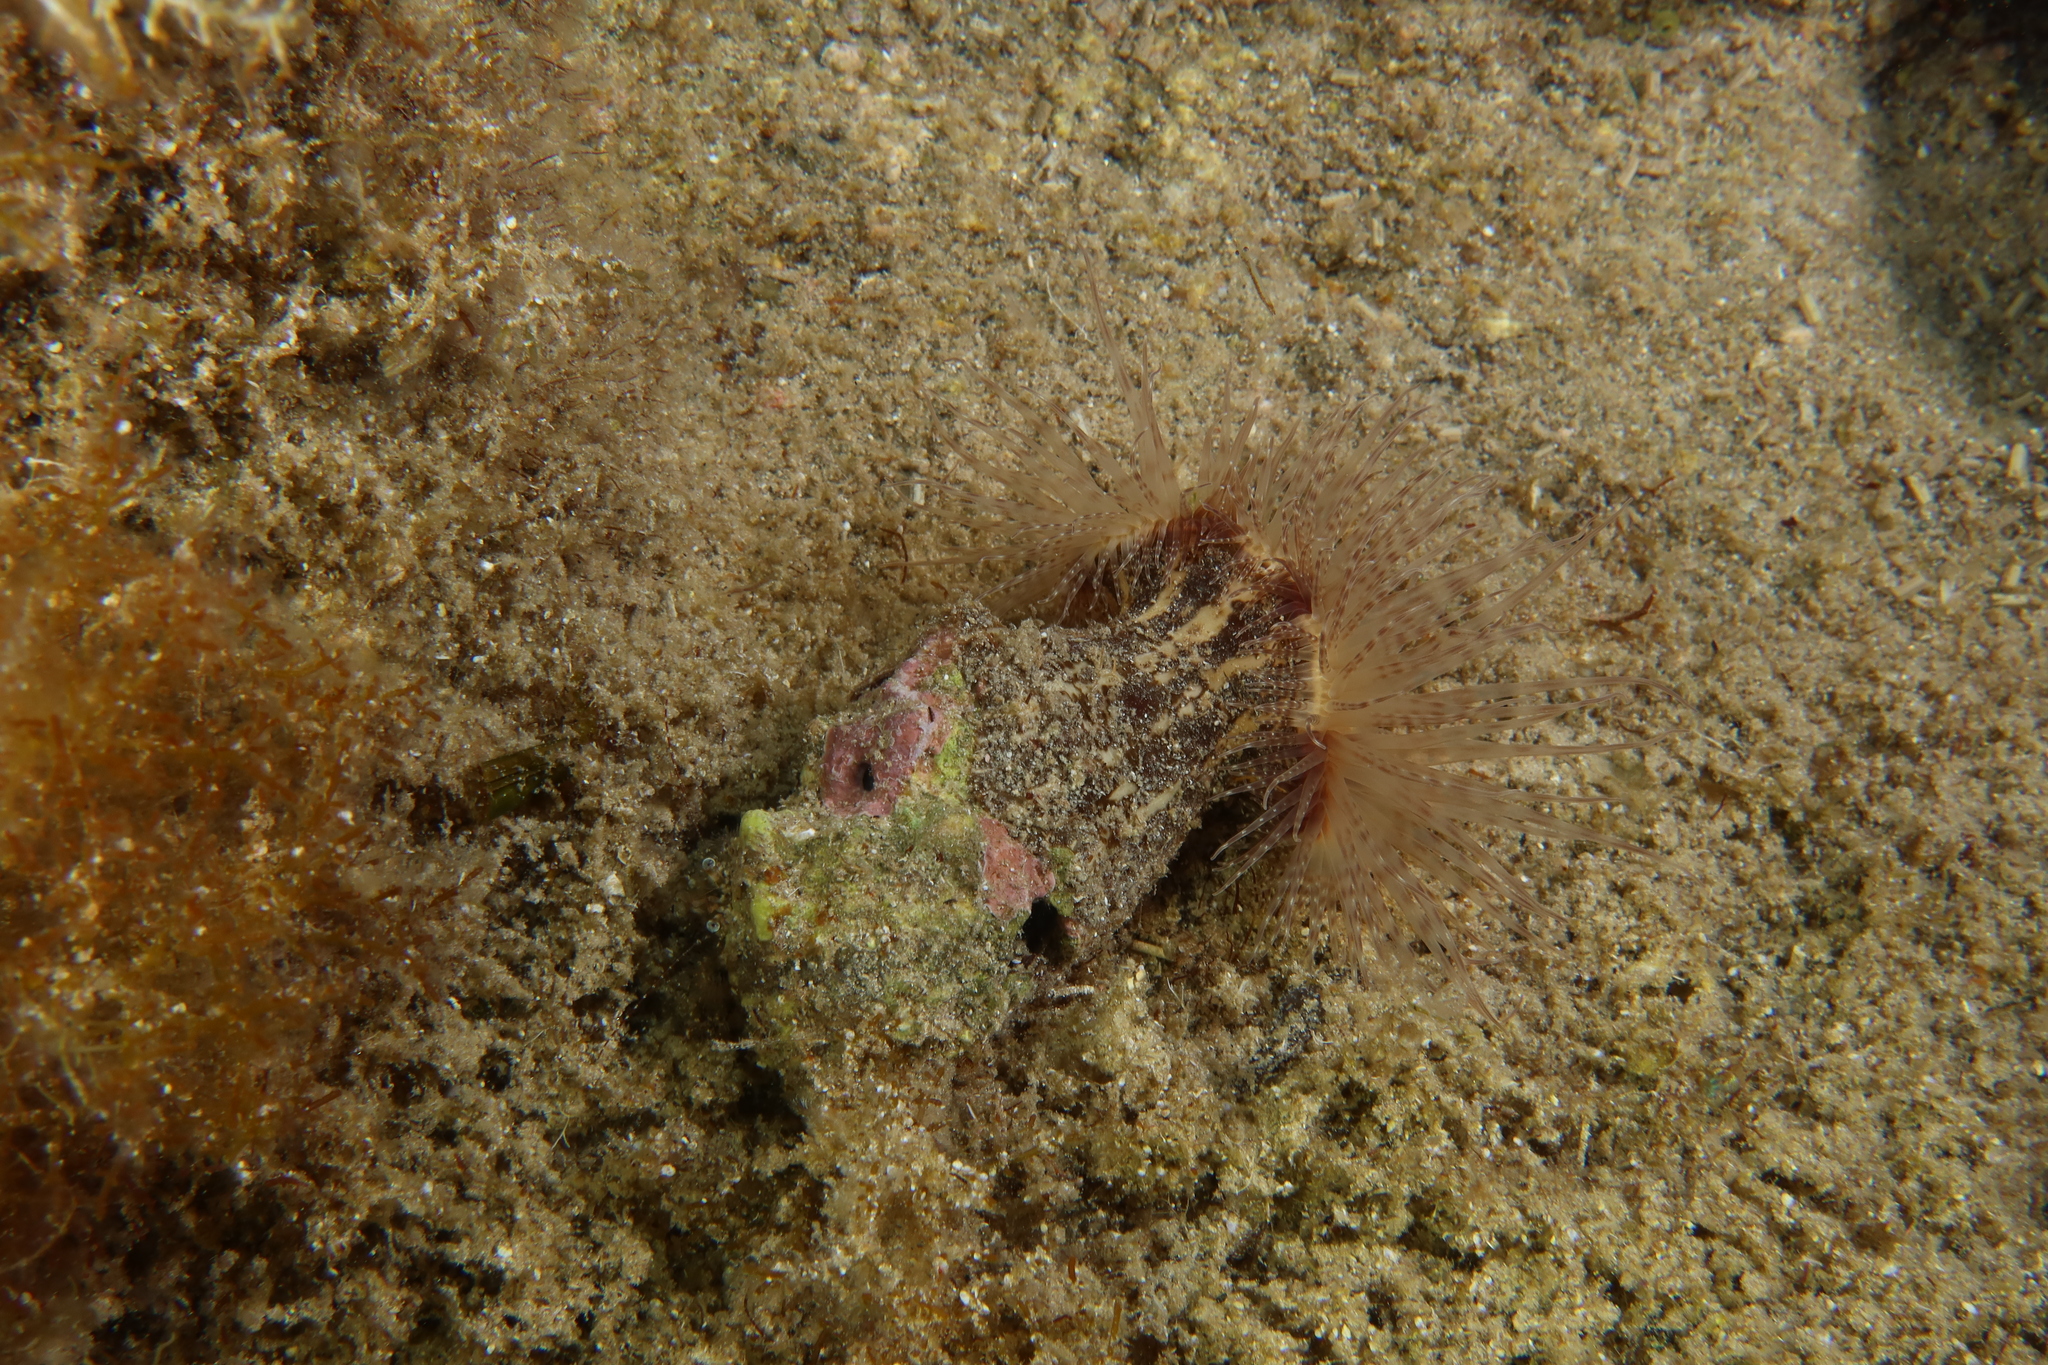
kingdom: Animalia
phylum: Cnidaria
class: Anthozoa
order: Actiniaria
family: Hormathiidae
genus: Calliactis
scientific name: Calliactis parasitica
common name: Parasitic anemone
